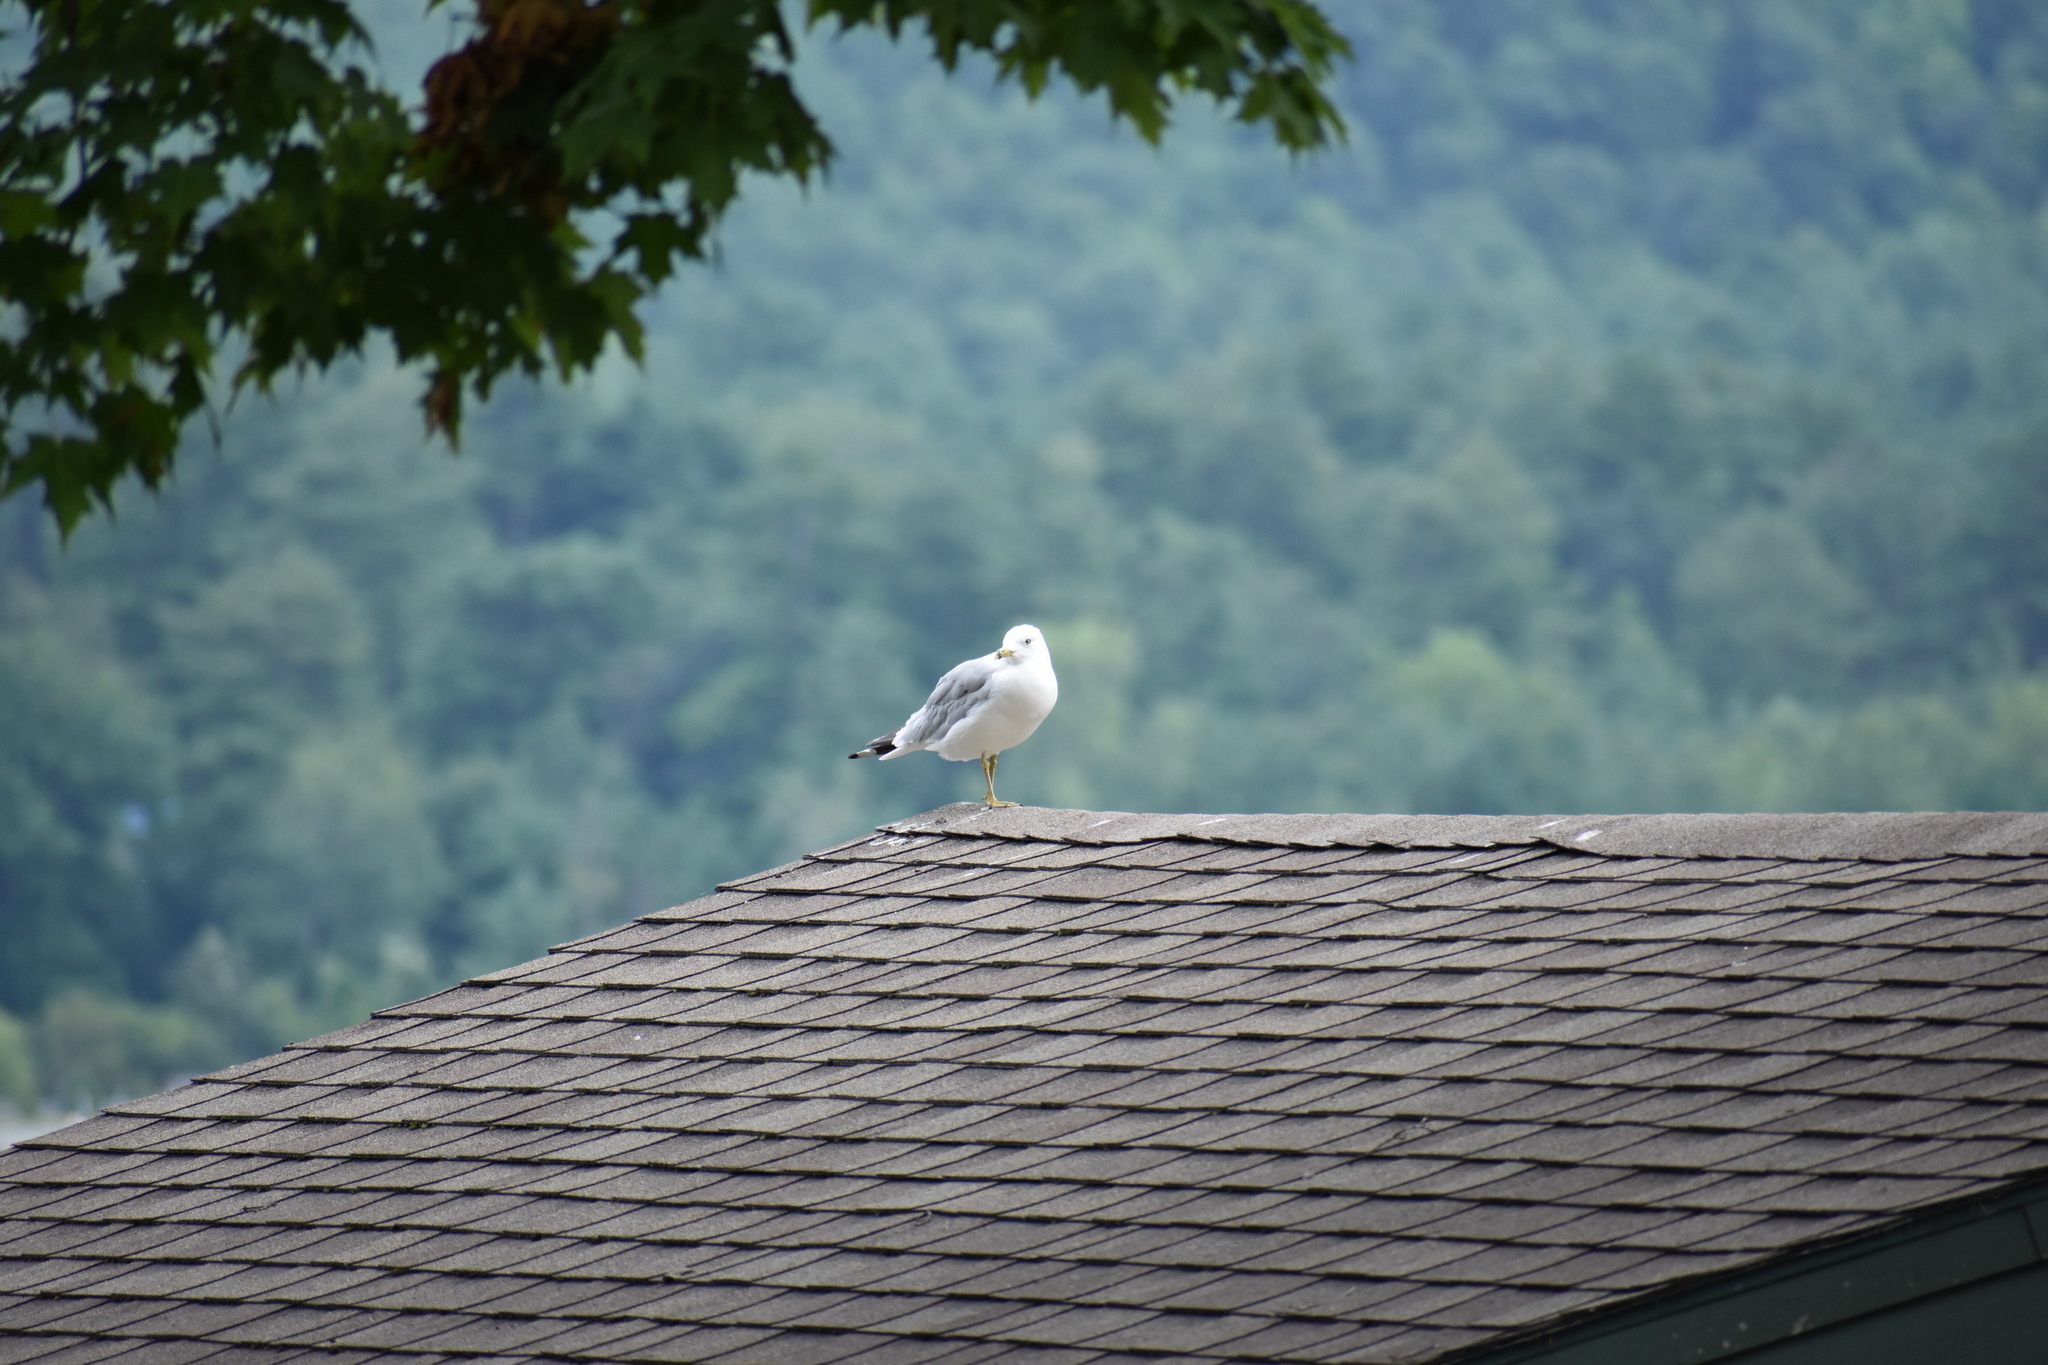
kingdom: Animalia
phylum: Chordata
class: Aves
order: Charadriiformes
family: Laridae
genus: Larus
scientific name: Larus delawarensis
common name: Ring-billed gull
